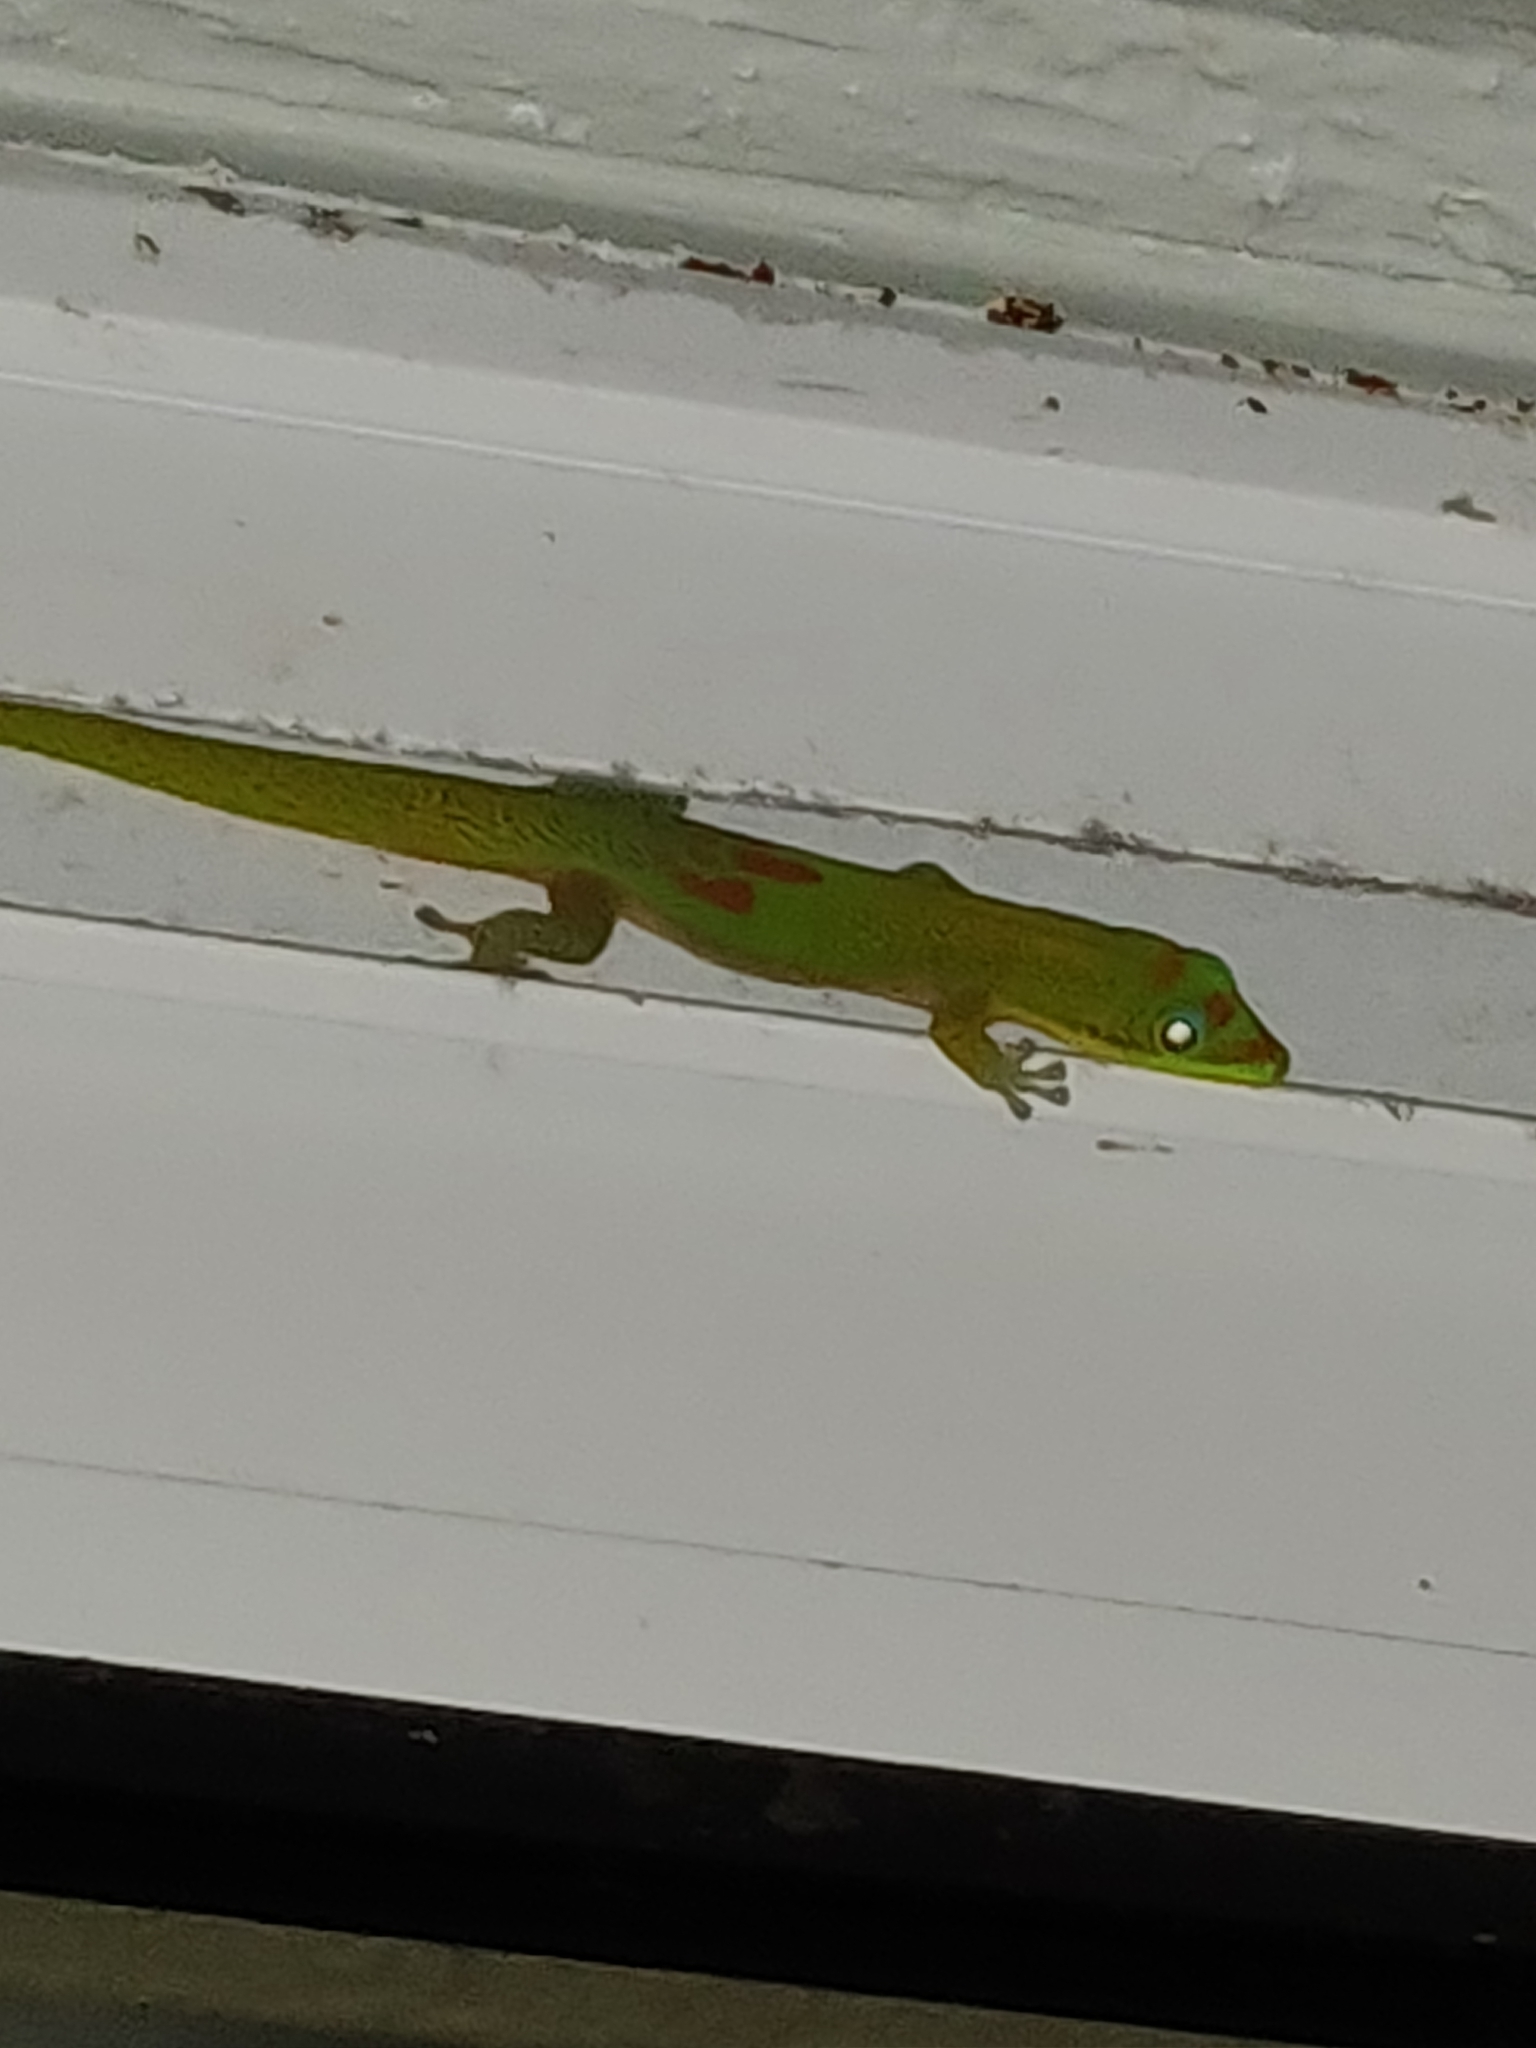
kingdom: Animalia
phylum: Chordata
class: Squamata
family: Gekkonidae
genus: Phelsuma
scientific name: Phelsuma laticauda
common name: Gold dust day gecko
